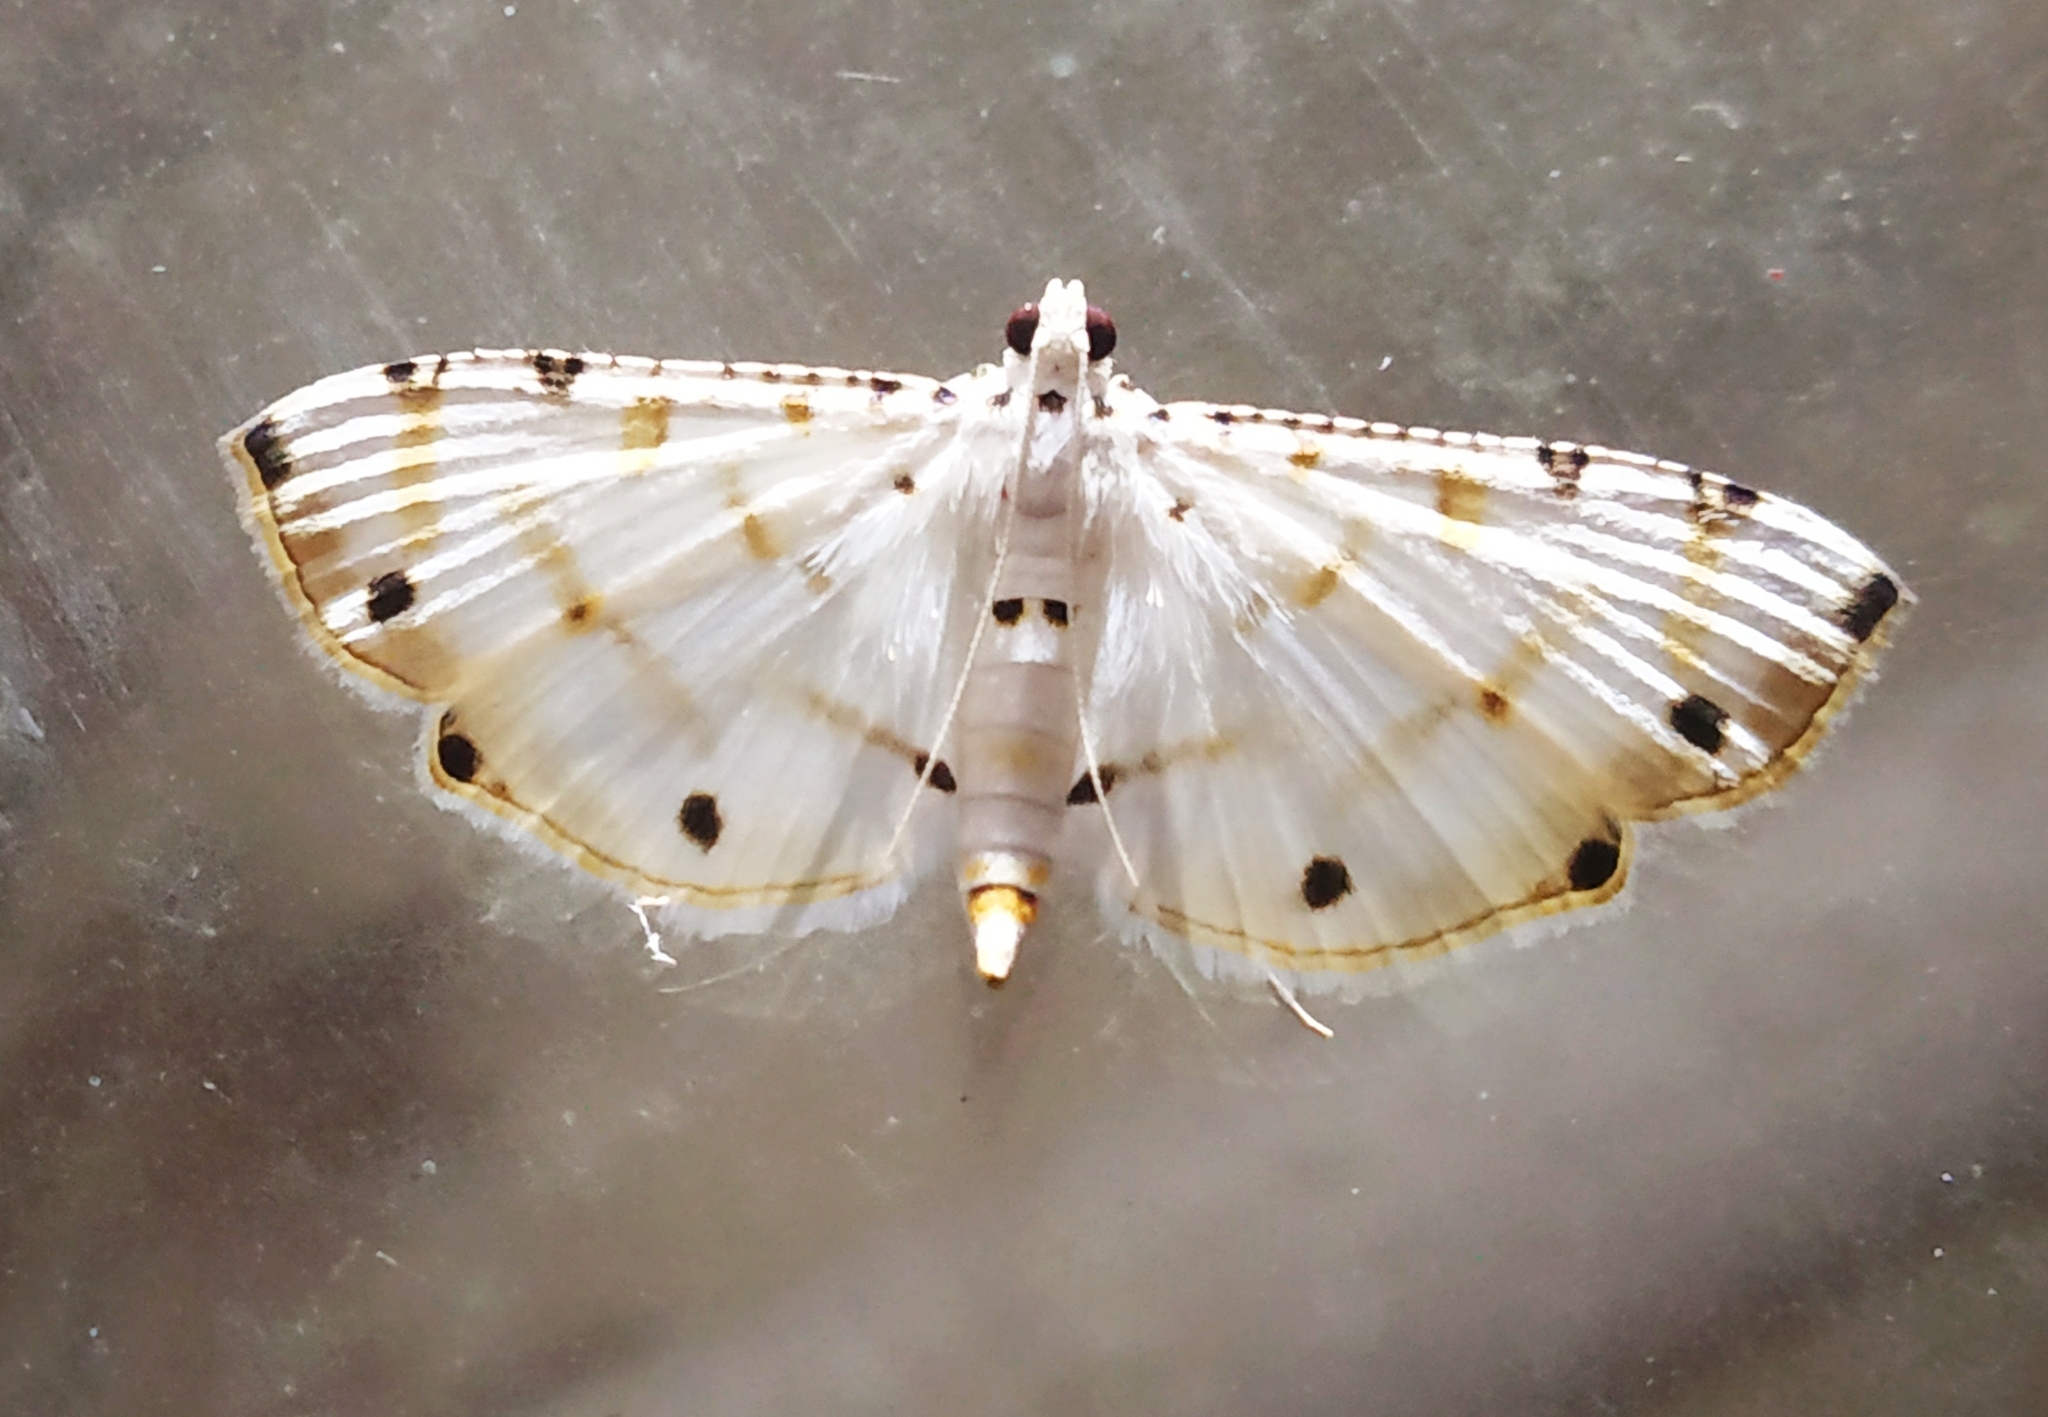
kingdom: Animalia
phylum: Arthropoda
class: Insecta
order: Lepidoptera
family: Crambidae
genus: Pycnarmon
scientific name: Pycnarmon cribrata
